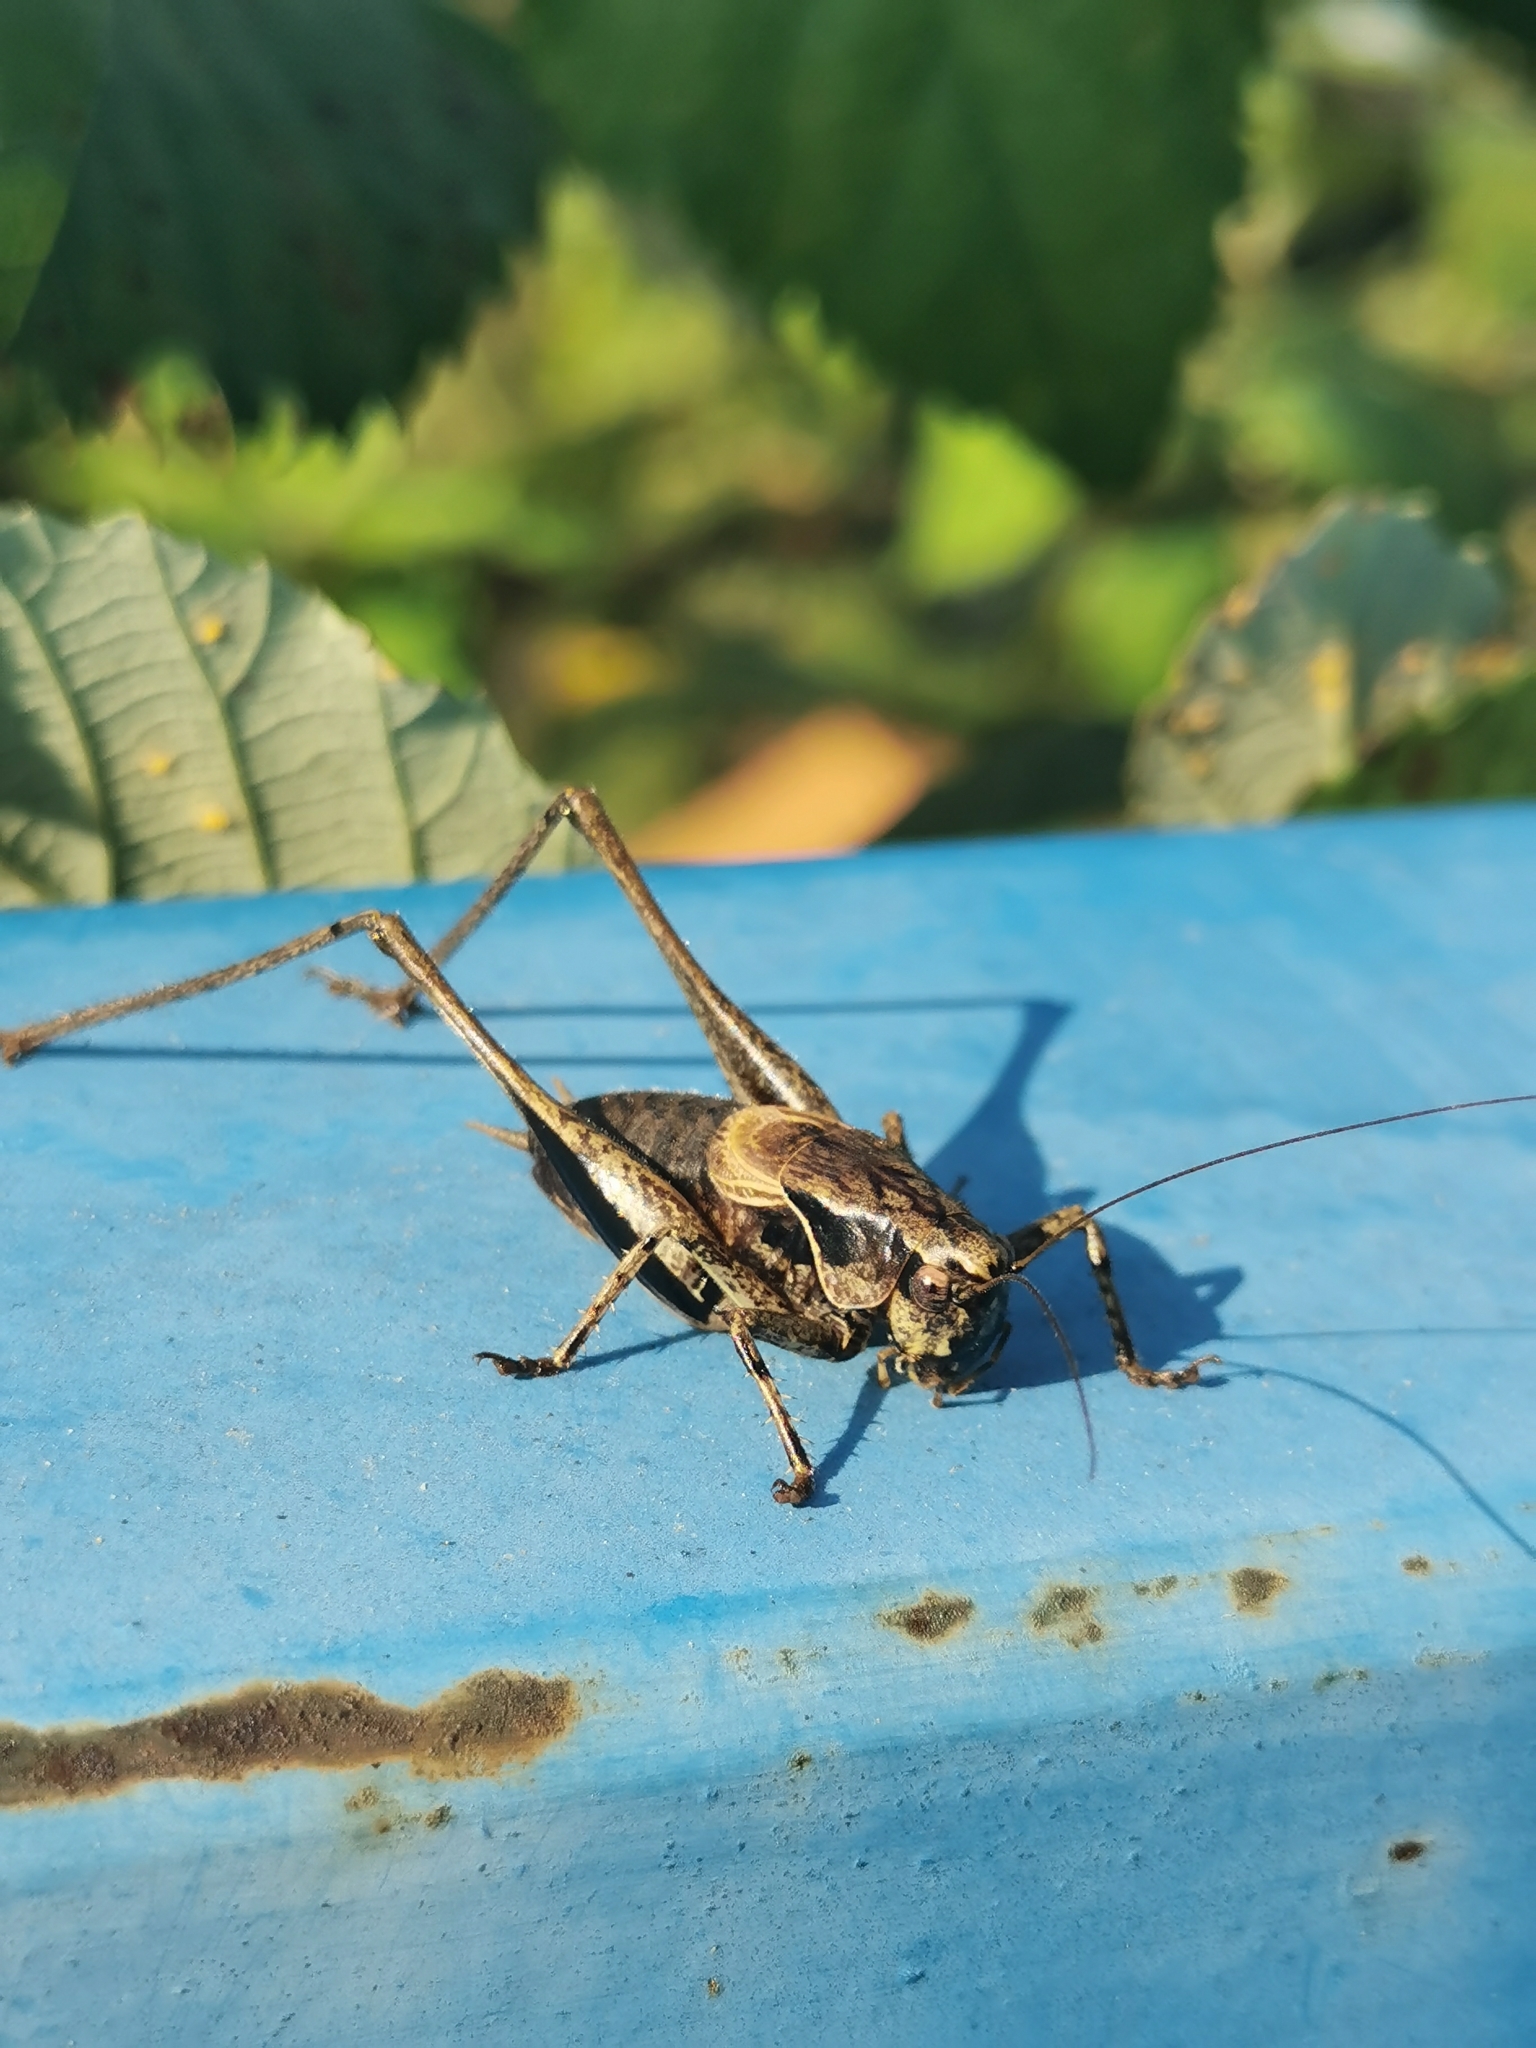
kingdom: Animalia
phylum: Arthropoda
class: Insecta
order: Orthoptera
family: Tettigoniidae
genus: Pholidoptera
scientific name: Pholidoptera griseoaptera
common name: Dark bush-cricket
